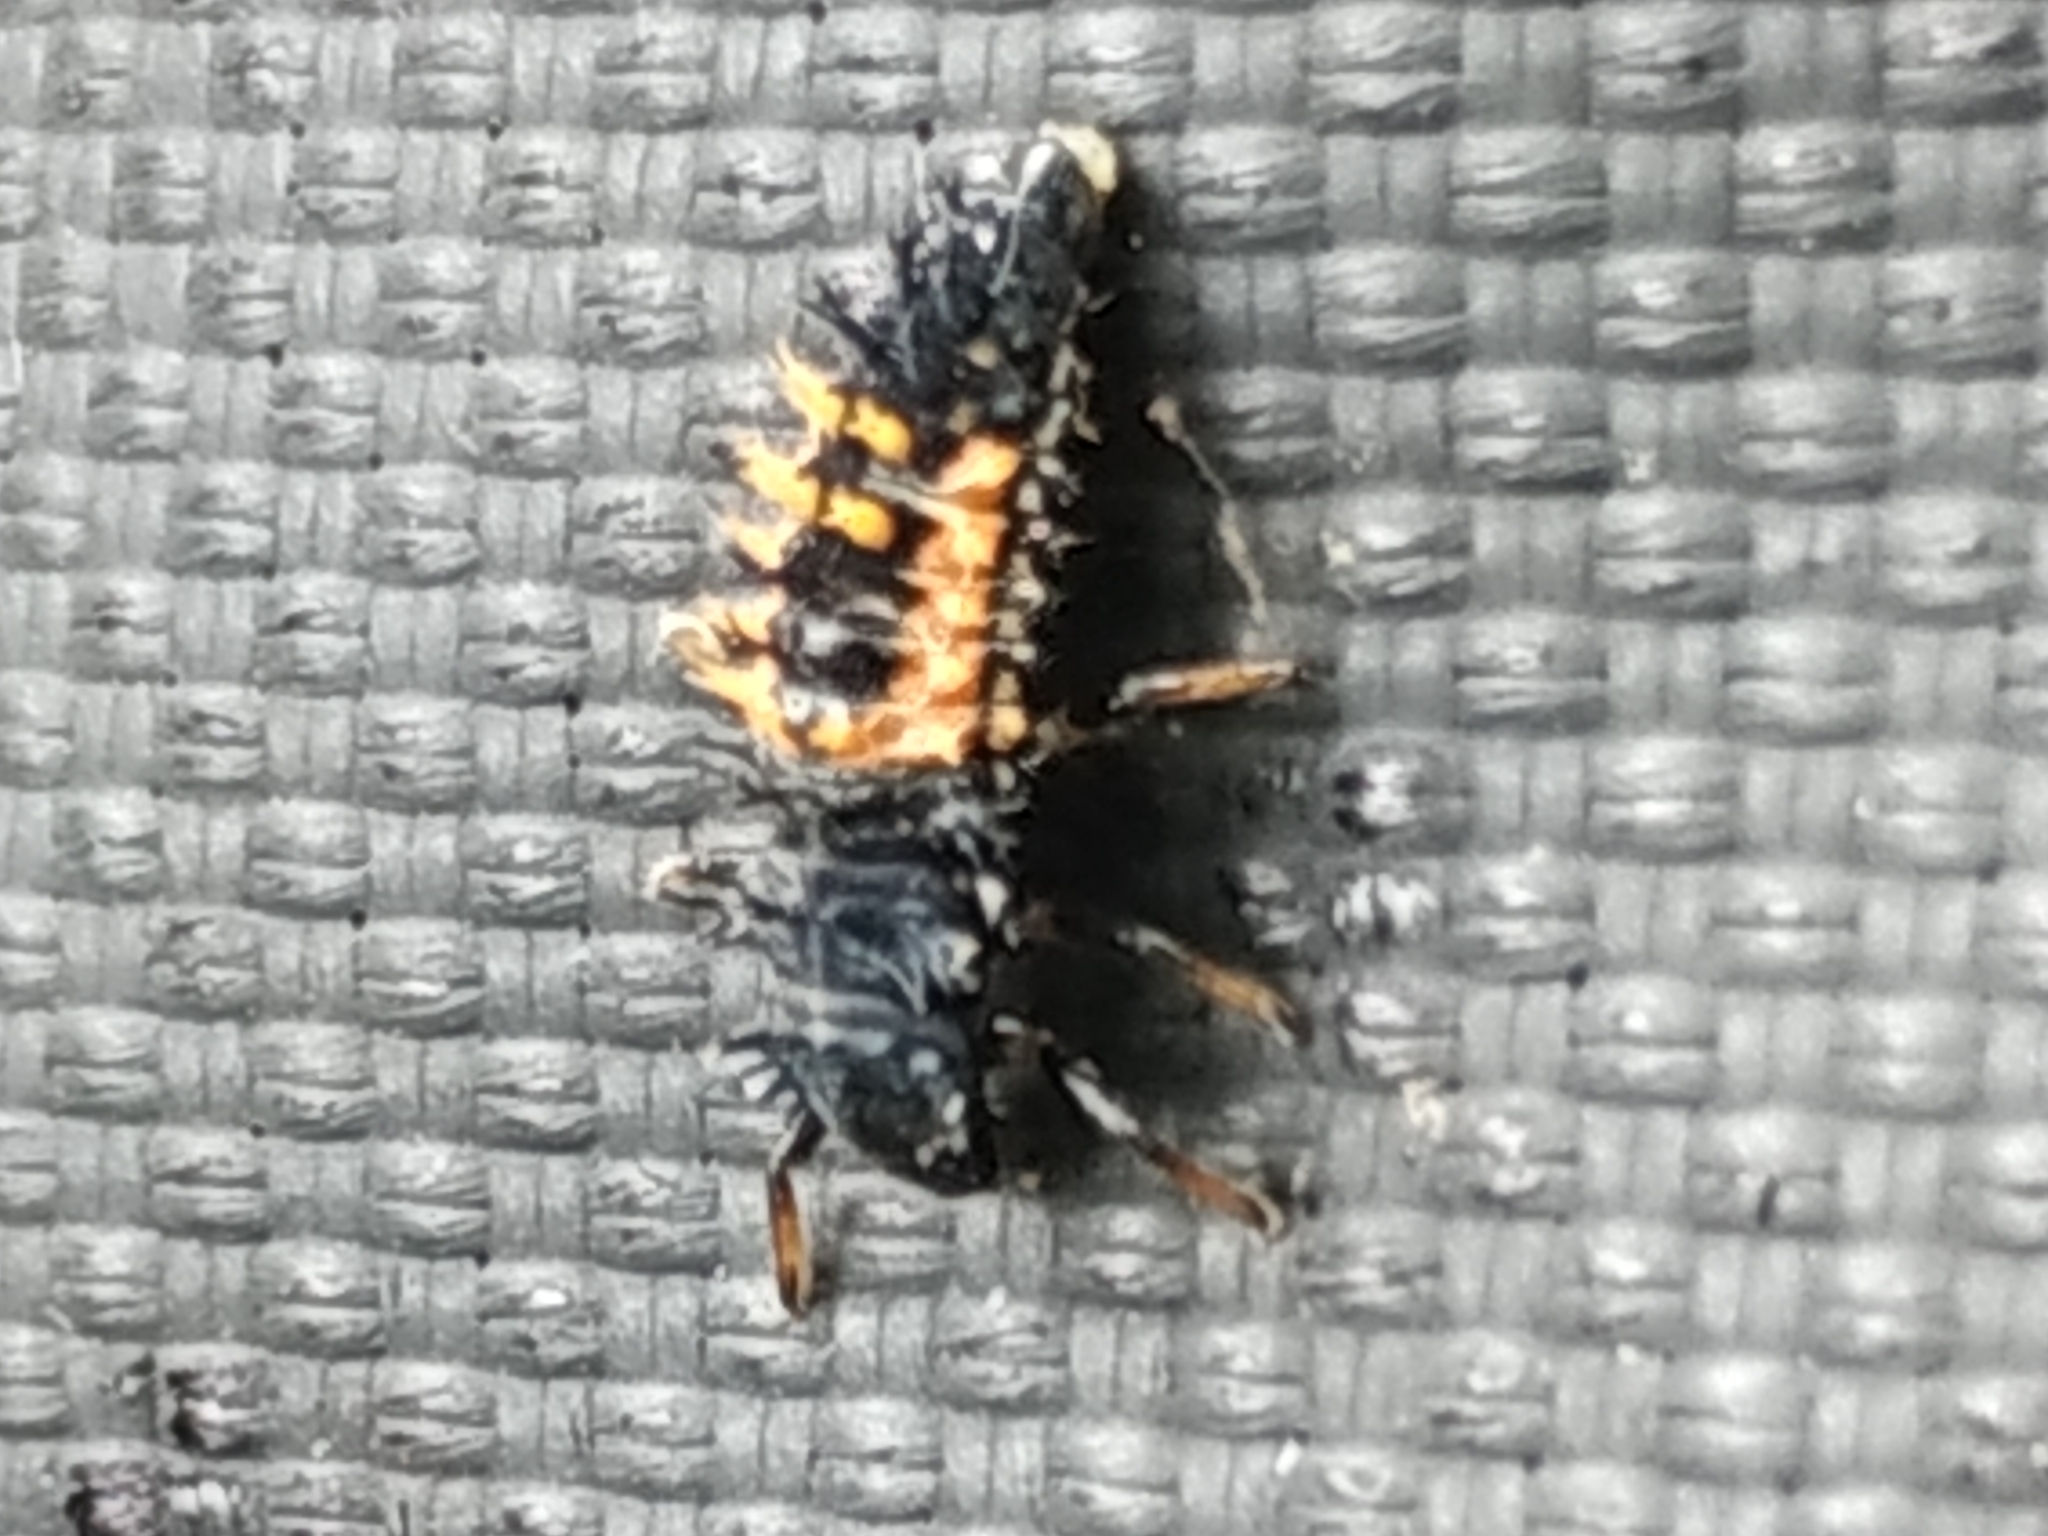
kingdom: Animalia
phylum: Arthropoda
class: Insecta
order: Coleoptera
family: Coccinellidae
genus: Harmonia
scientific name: Harmonia axyridis
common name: Harlequin ladybird
